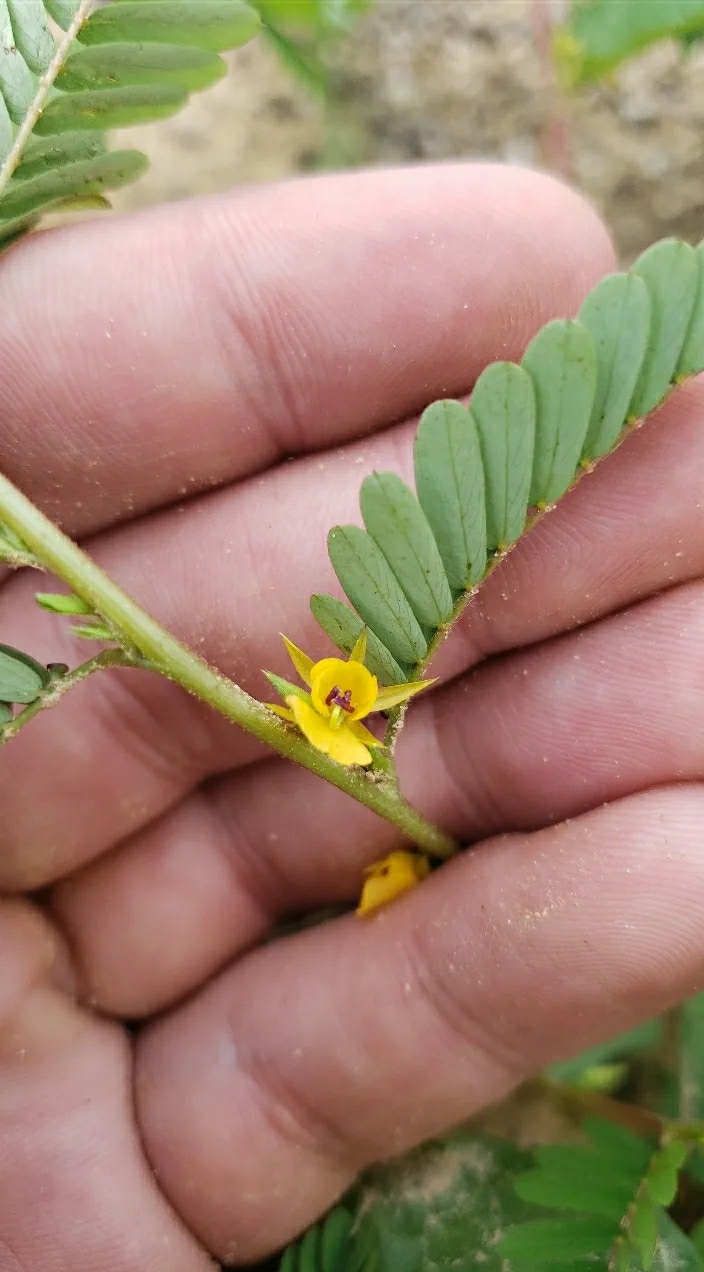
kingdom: Plantae
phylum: Tracheophyta
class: Magnoliopsida
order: Fabales
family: Fabaceae
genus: Chamaecrista
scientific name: Chamaecrista nictitans
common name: Sensitive cassia
